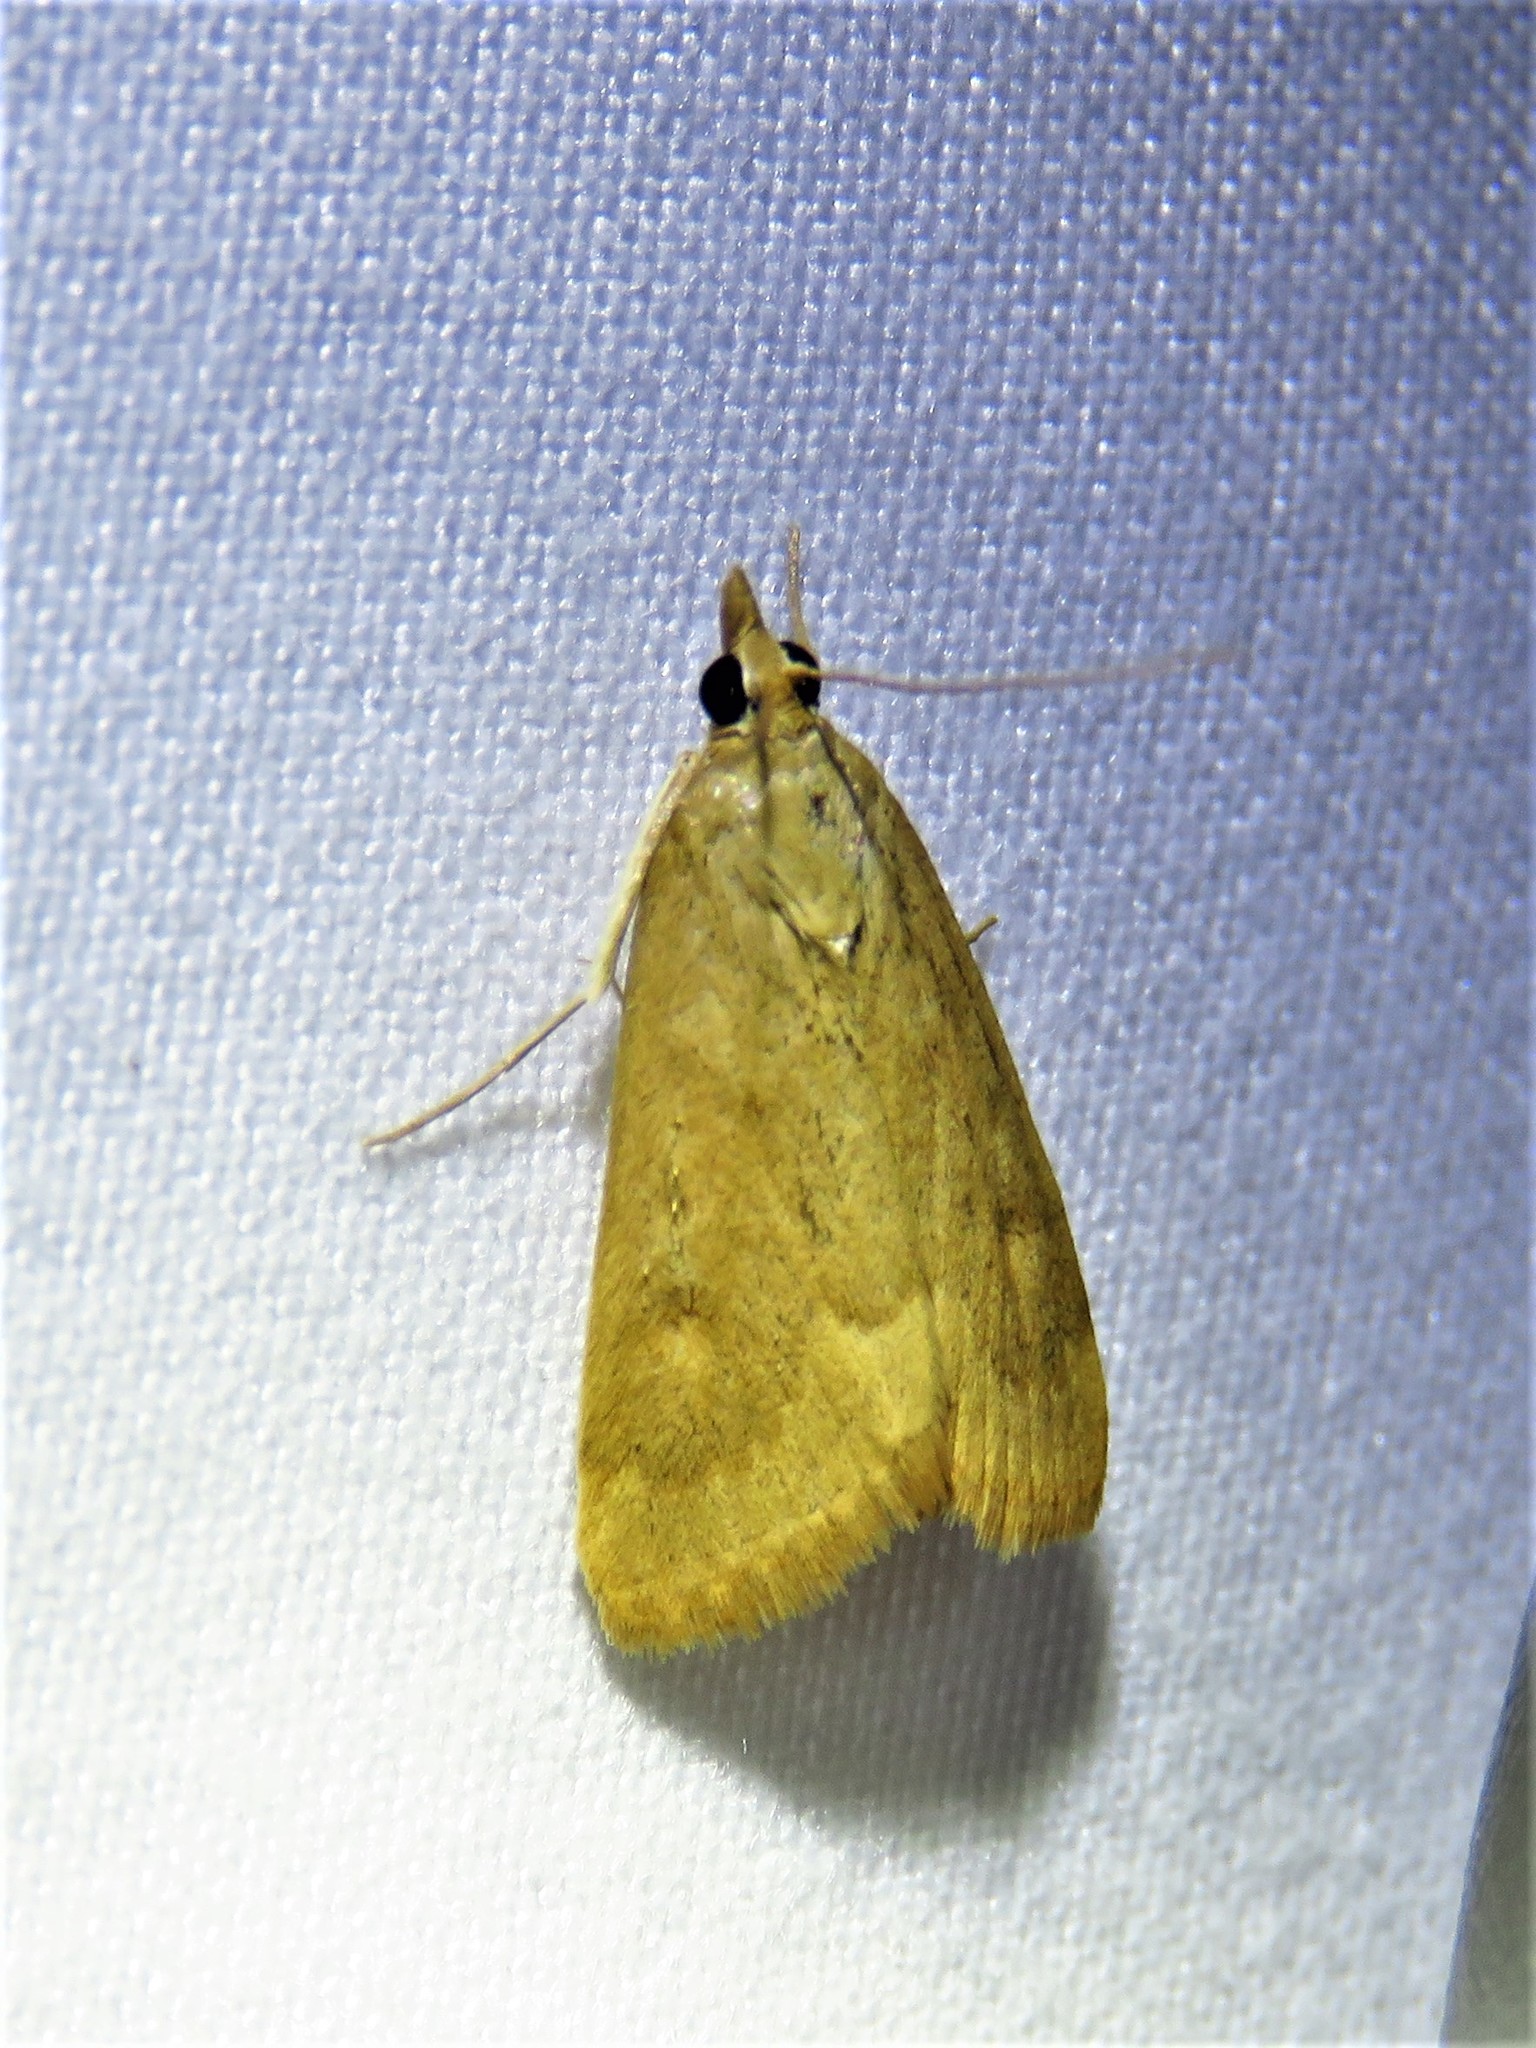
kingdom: Animalia
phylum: Arthropoda
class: Insecta
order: Lepidoptera
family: Crambidae
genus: Achyra
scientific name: Achyra rantalis
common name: Garden webworm
